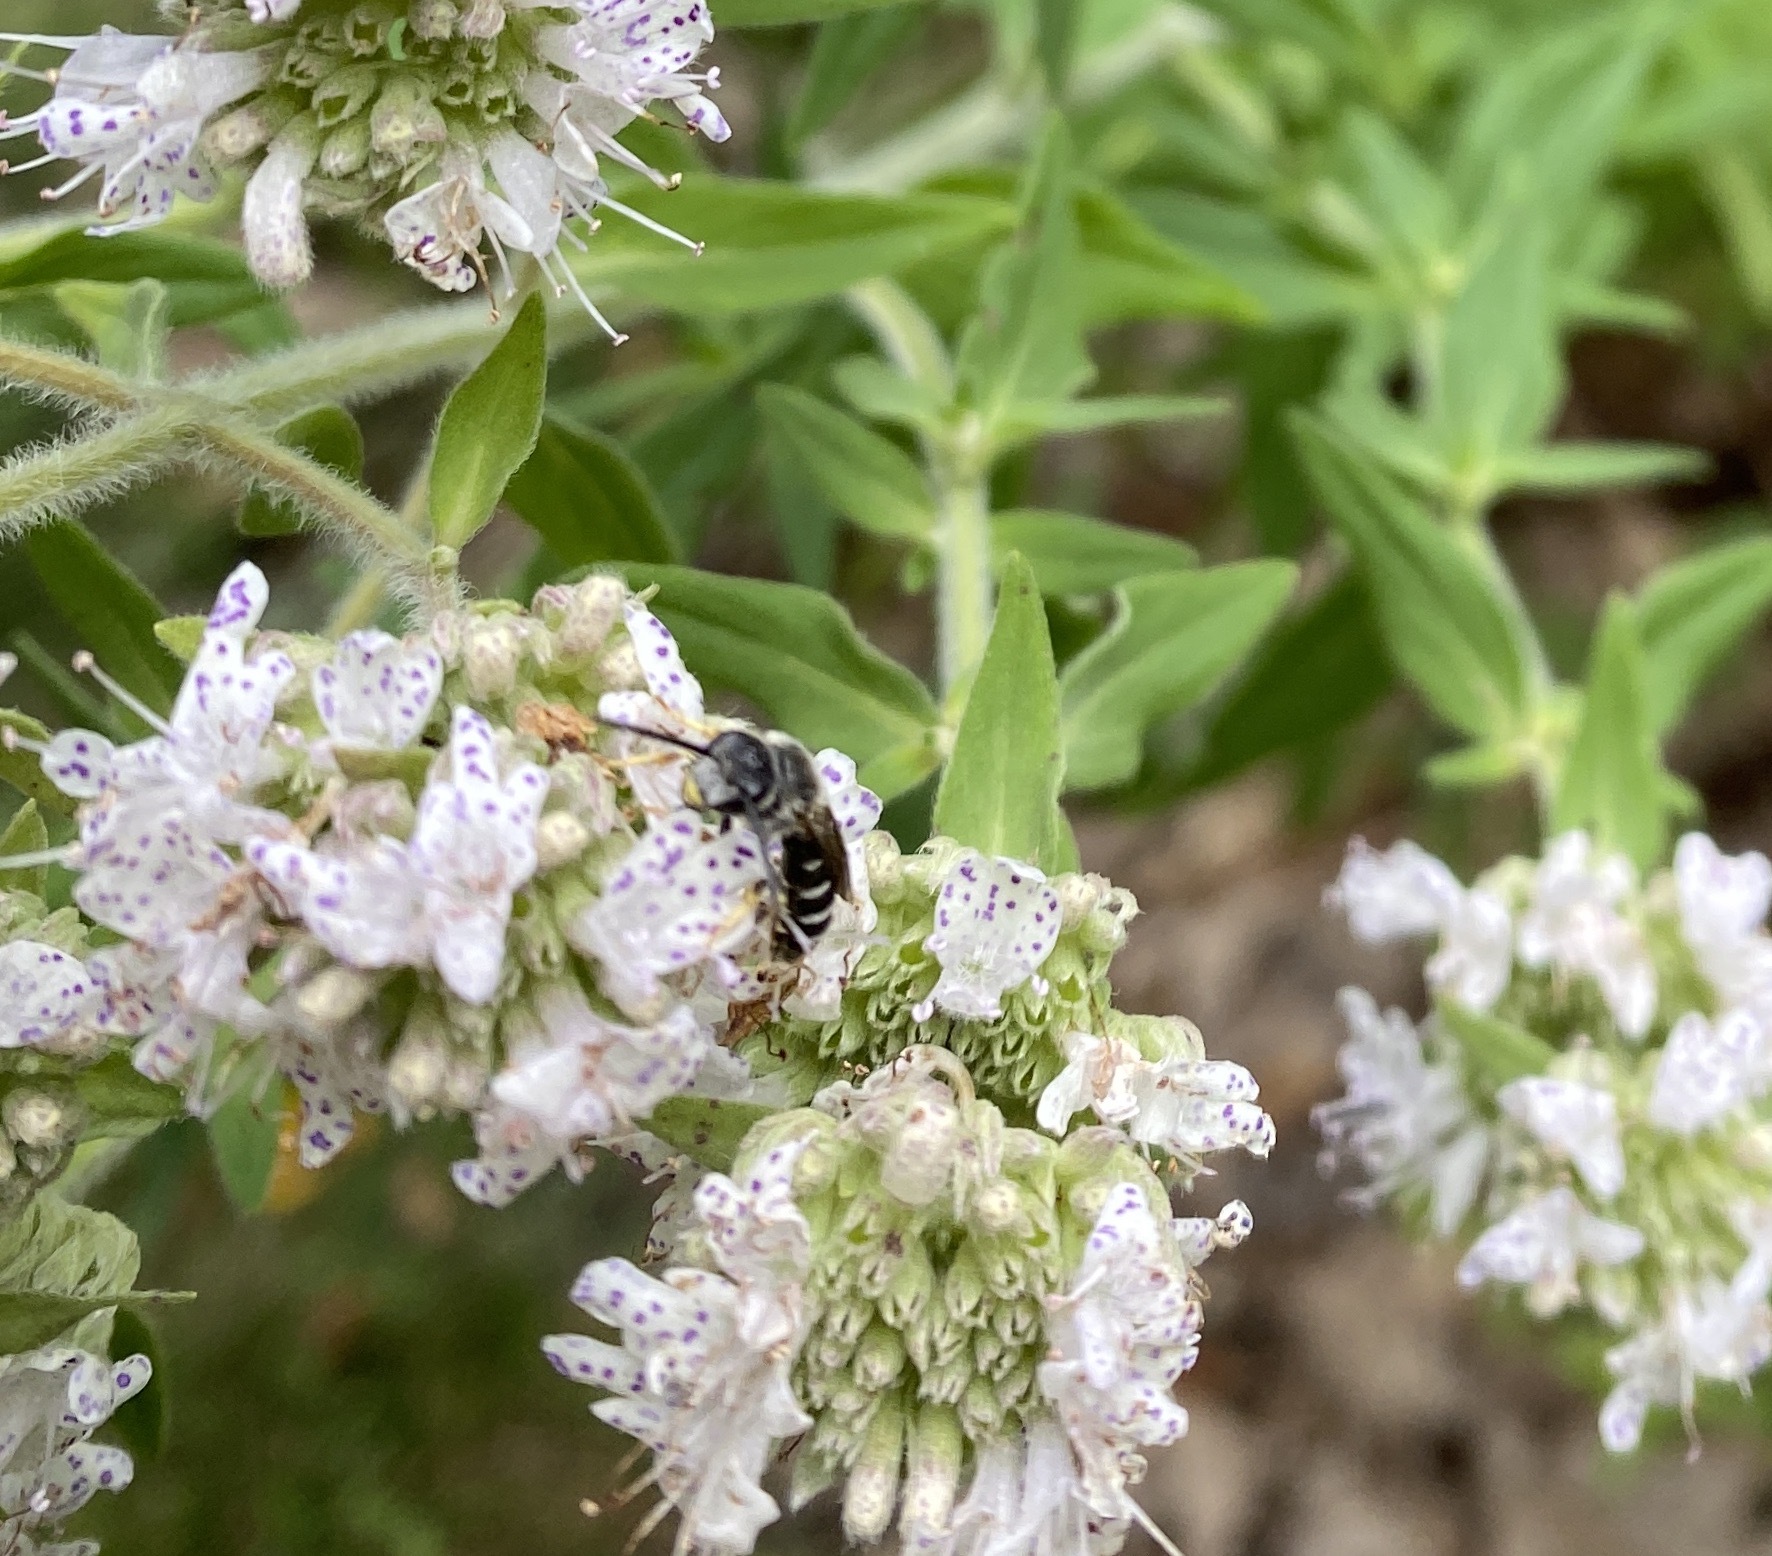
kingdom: Animalia
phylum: Arthropoda
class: Insecta
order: Hymenoptera
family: Halictidae
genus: Halictus
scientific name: Halictus rubicundus
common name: Orange-legged furrow bee
